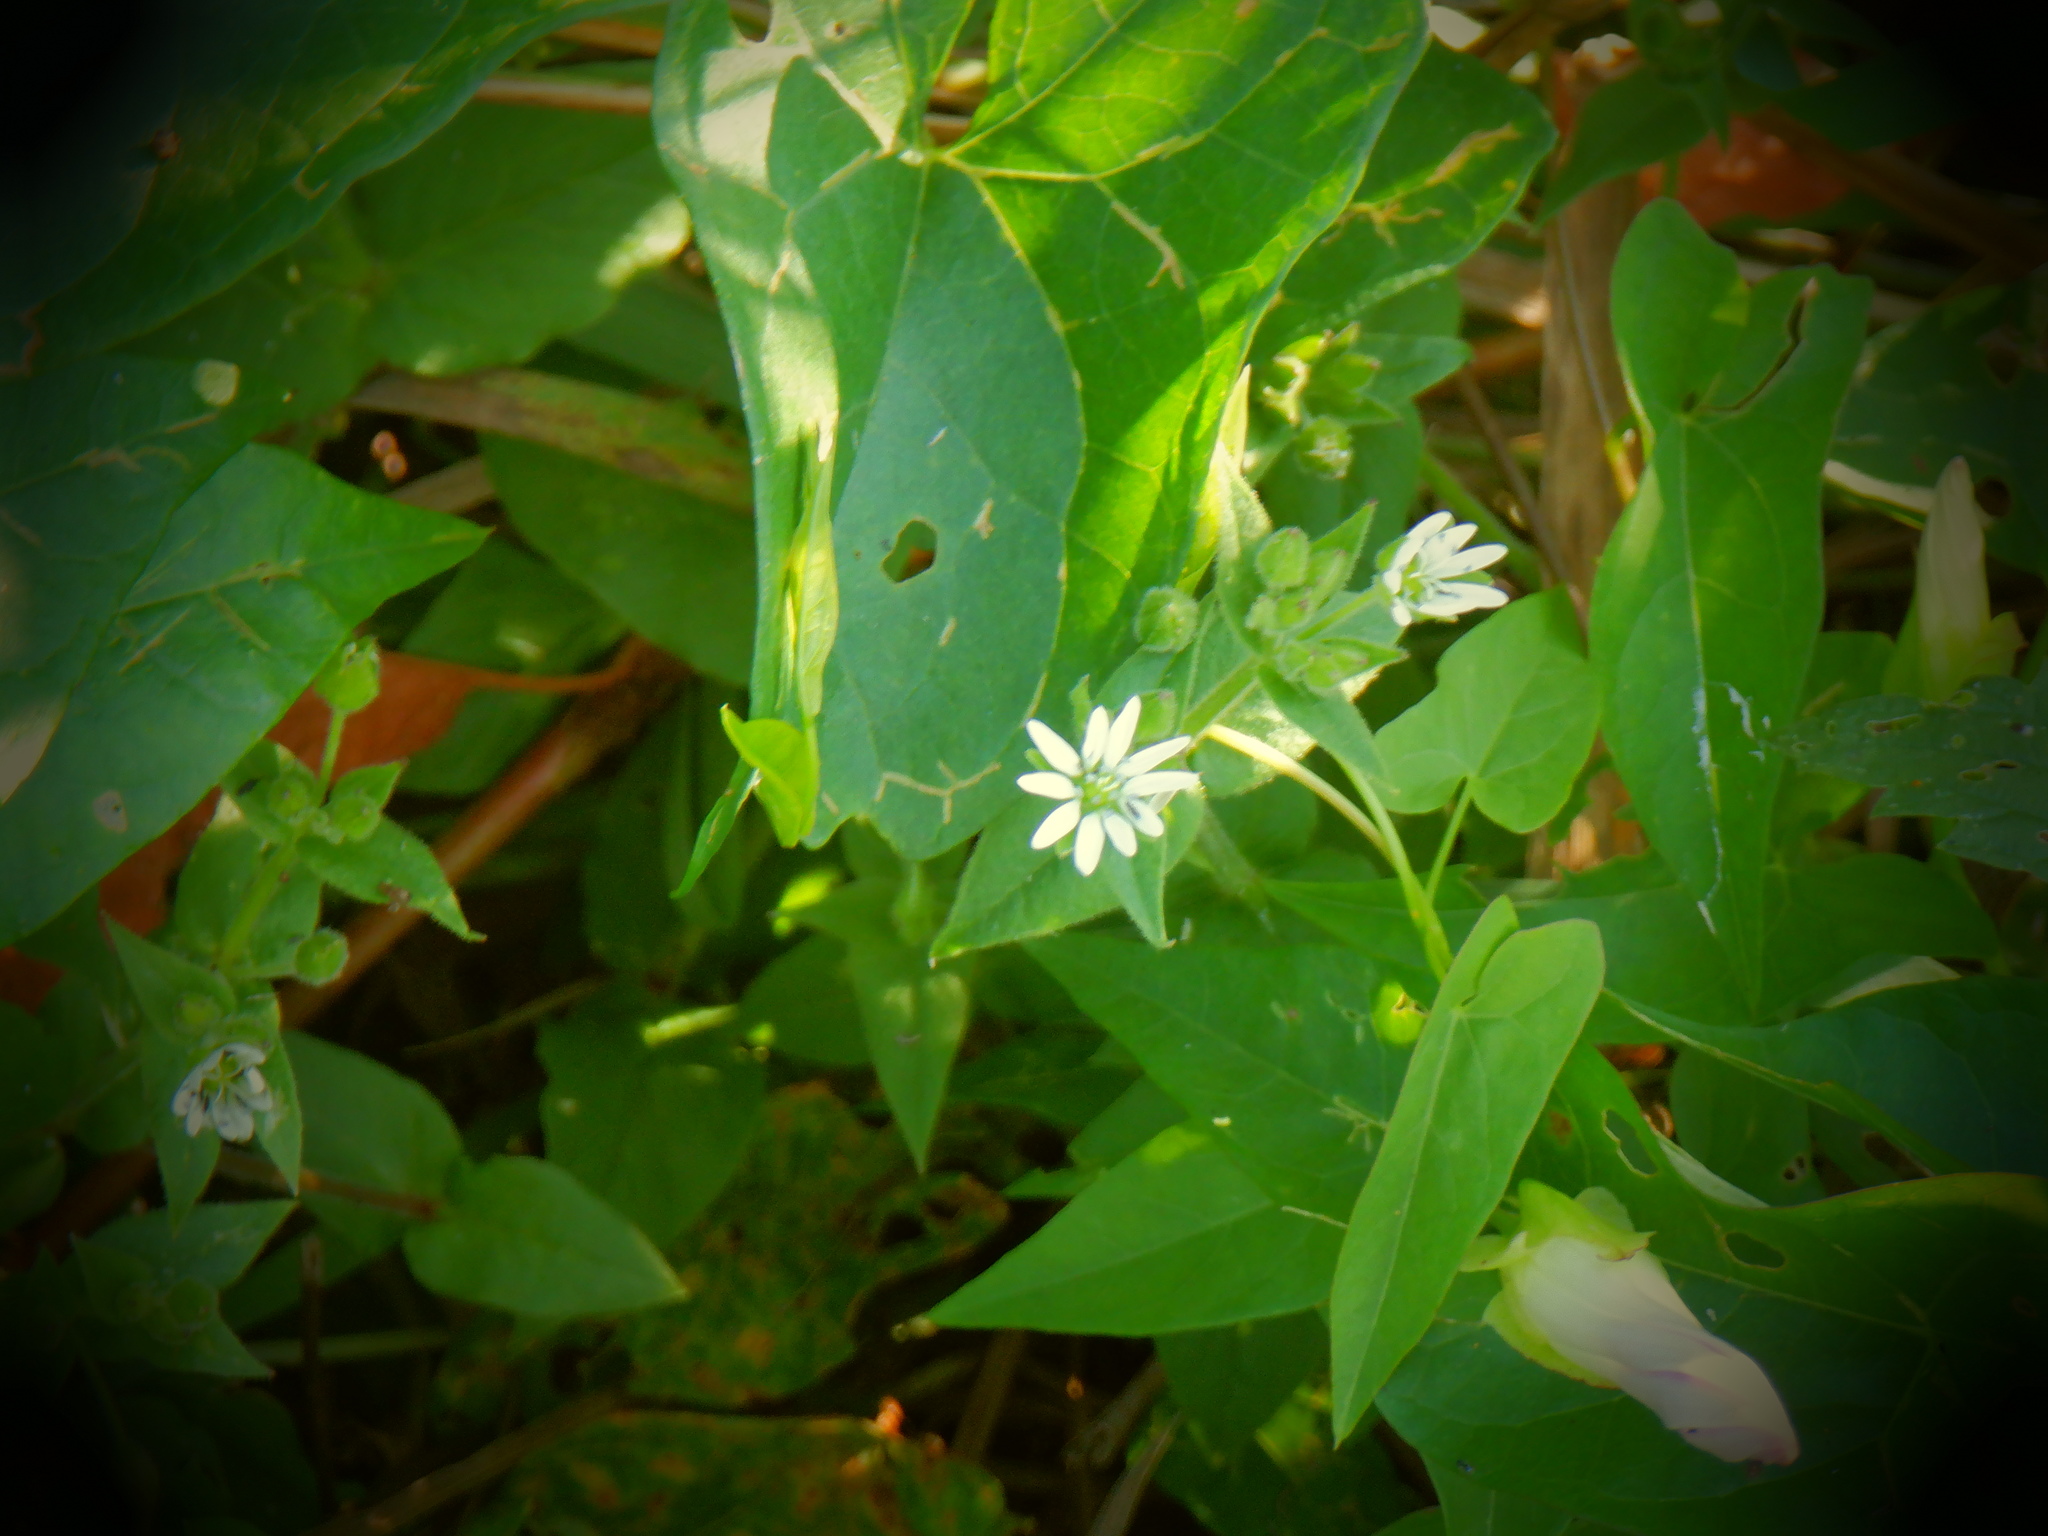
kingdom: Plantae
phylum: Tracheophyta
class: Magnoliopsida
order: Caryophyllales
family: Caryophyllaceae
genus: Stellaria
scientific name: Stellaria aquatica
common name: Water chickweed
